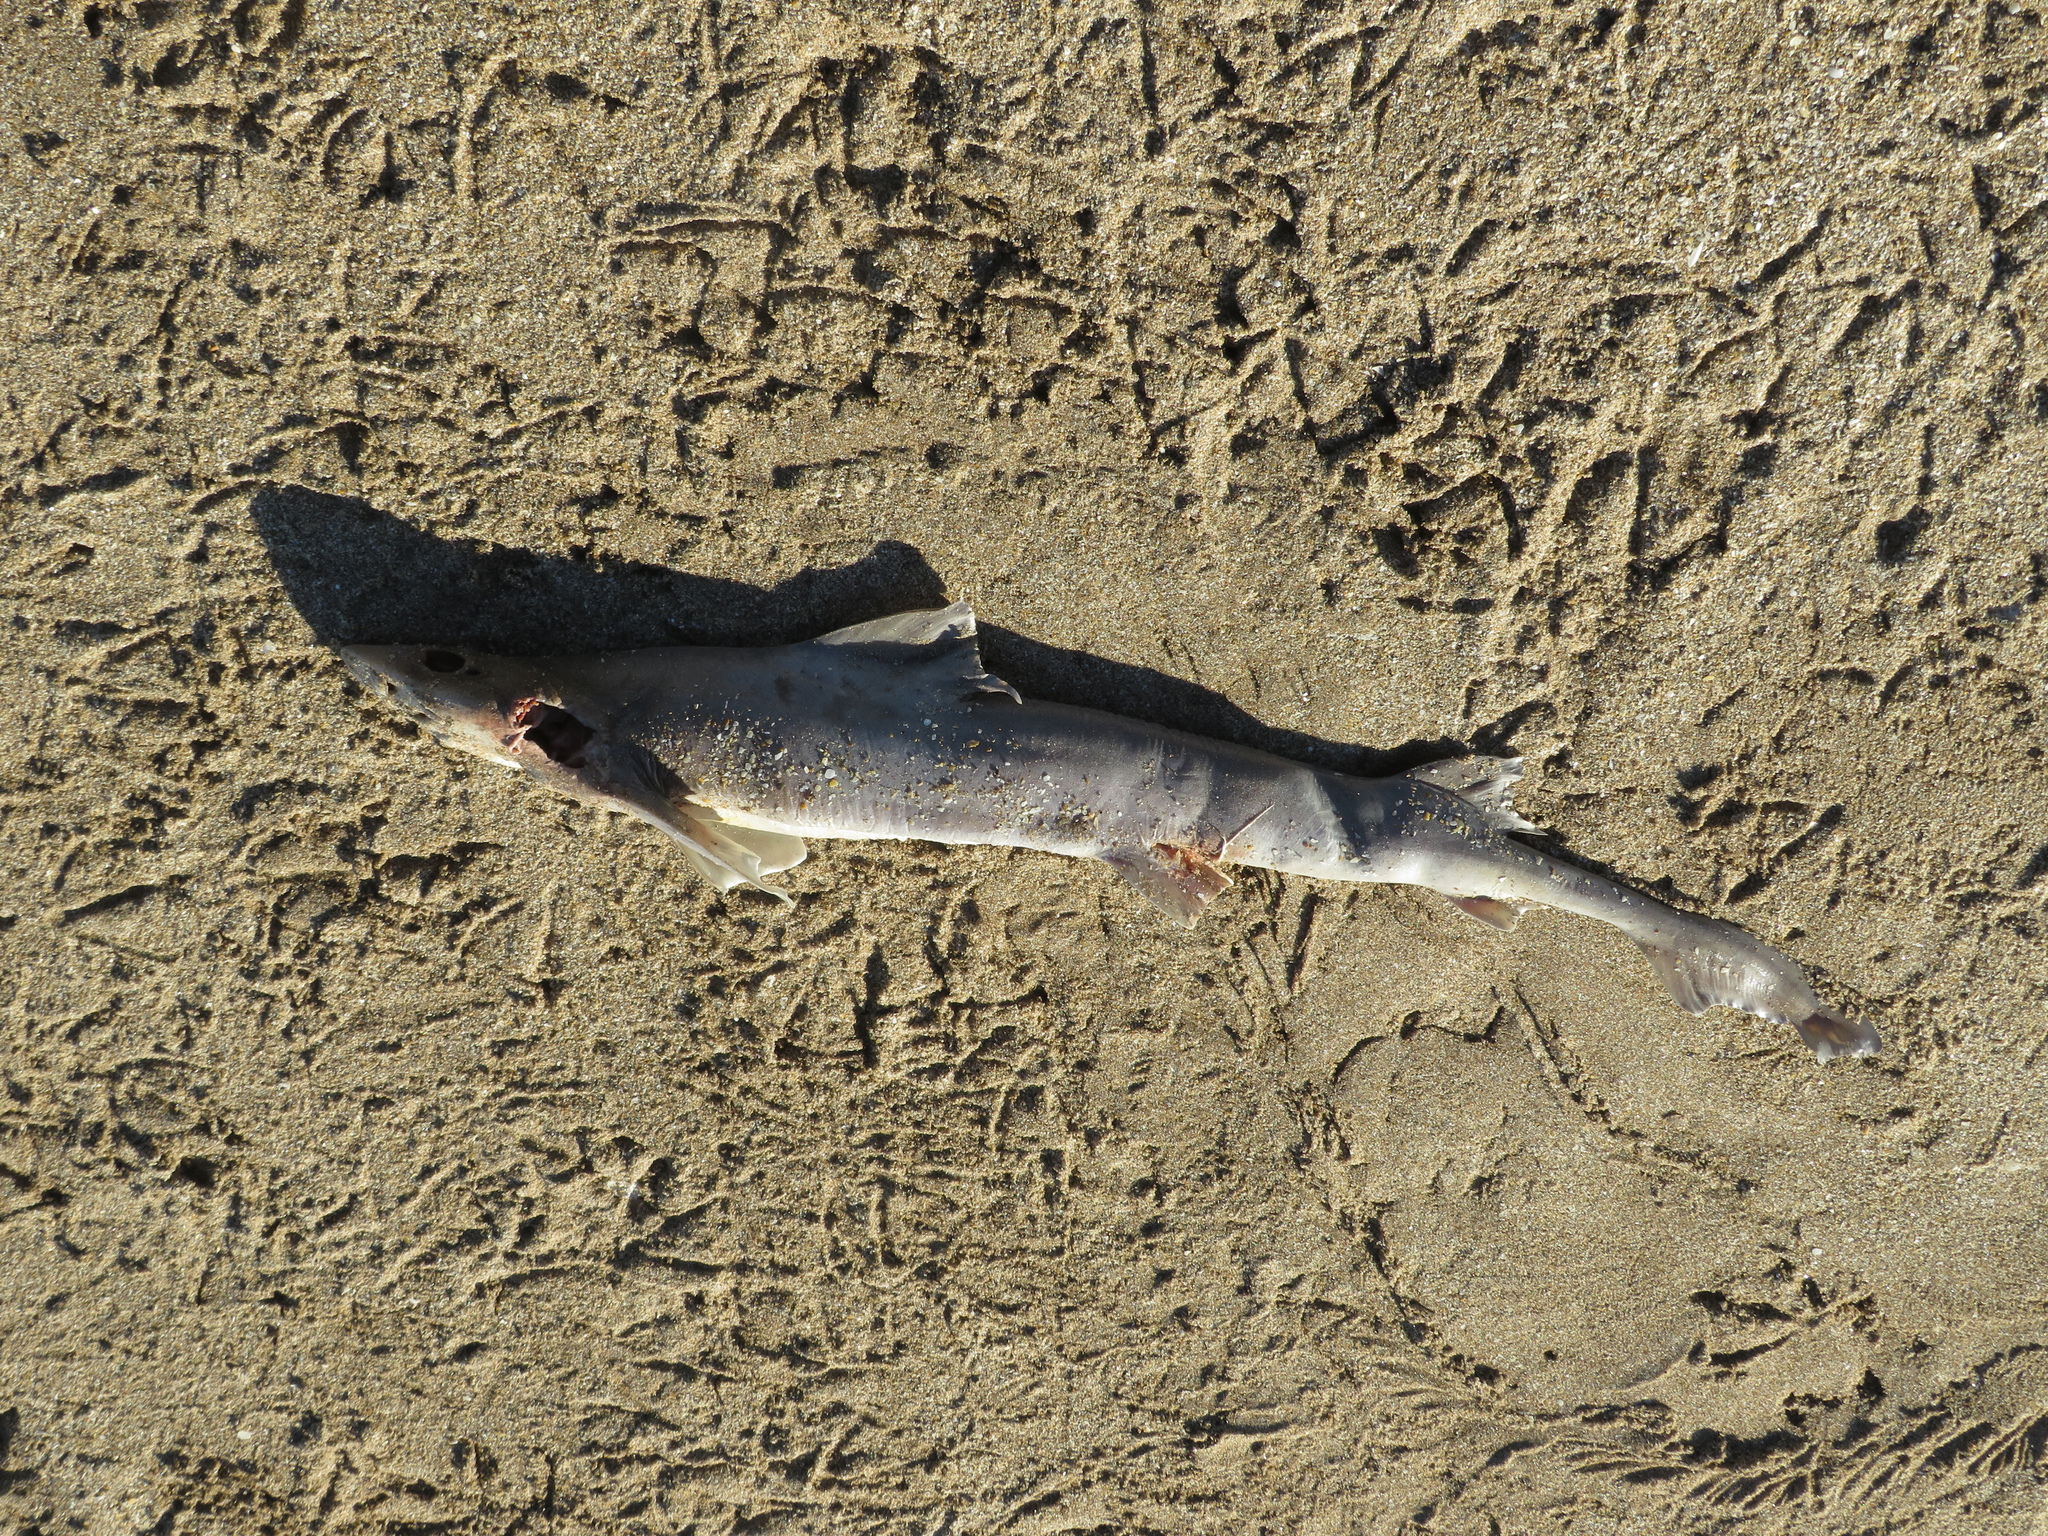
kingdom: Animalia
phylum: Chordata
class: Elasmobranchii
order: Carcharhiniformes
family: Triakidae
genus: Mustelus
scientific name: Mustelus schmitti
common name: Narrownose smooth-hound
